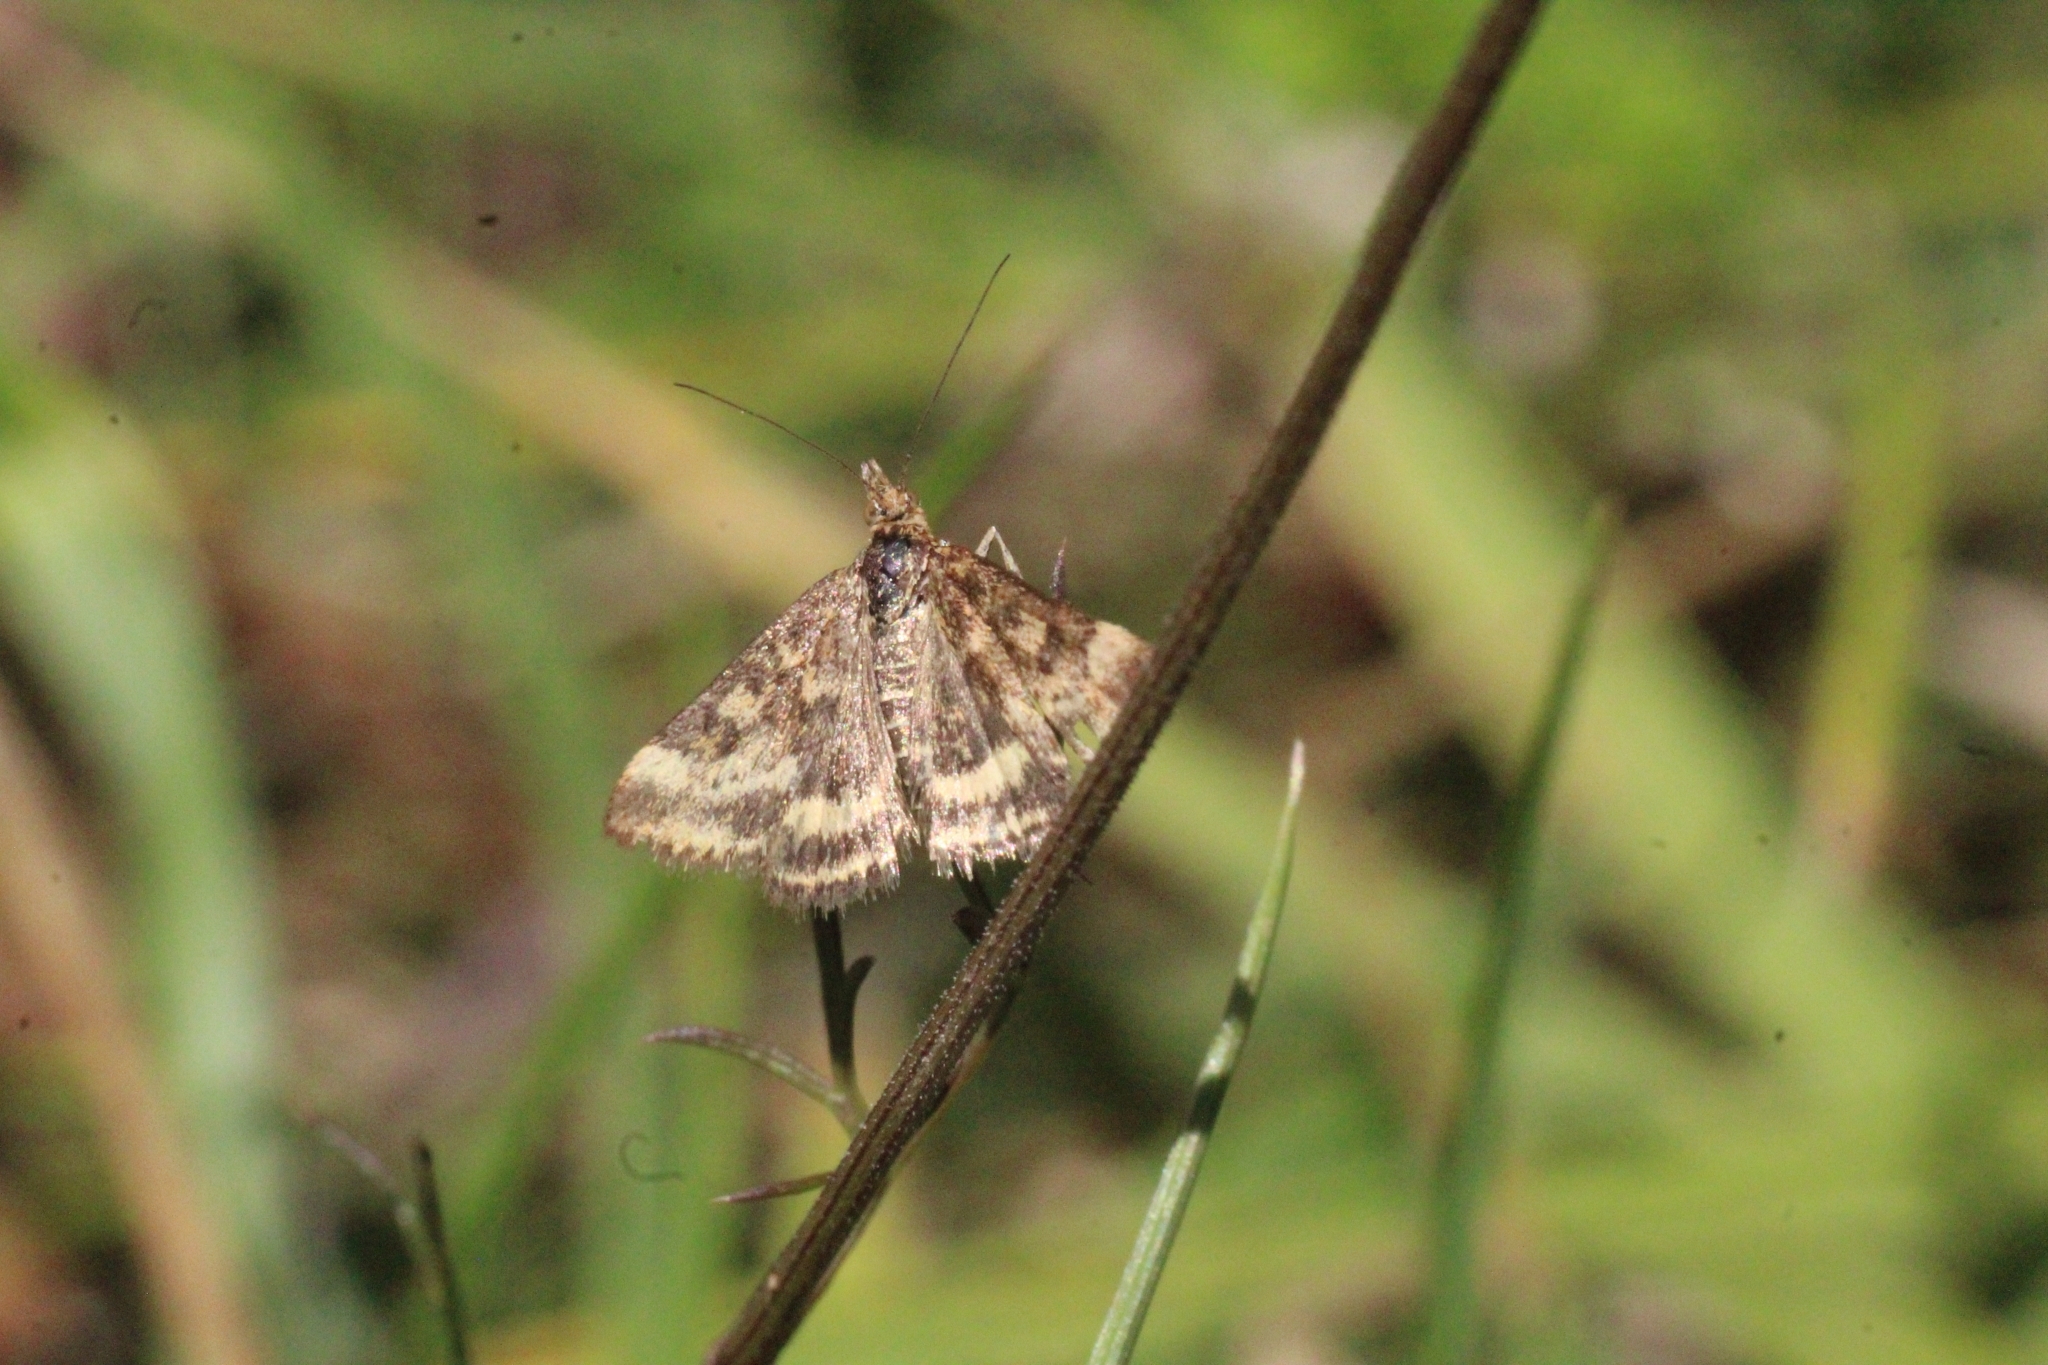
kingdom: Animalia
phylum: Arthropoda
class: Insecta
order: Lepidoptera
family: Crambidae
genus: Pyrausta
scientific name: Pyrausta despicata
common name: Straw-barred pearl
